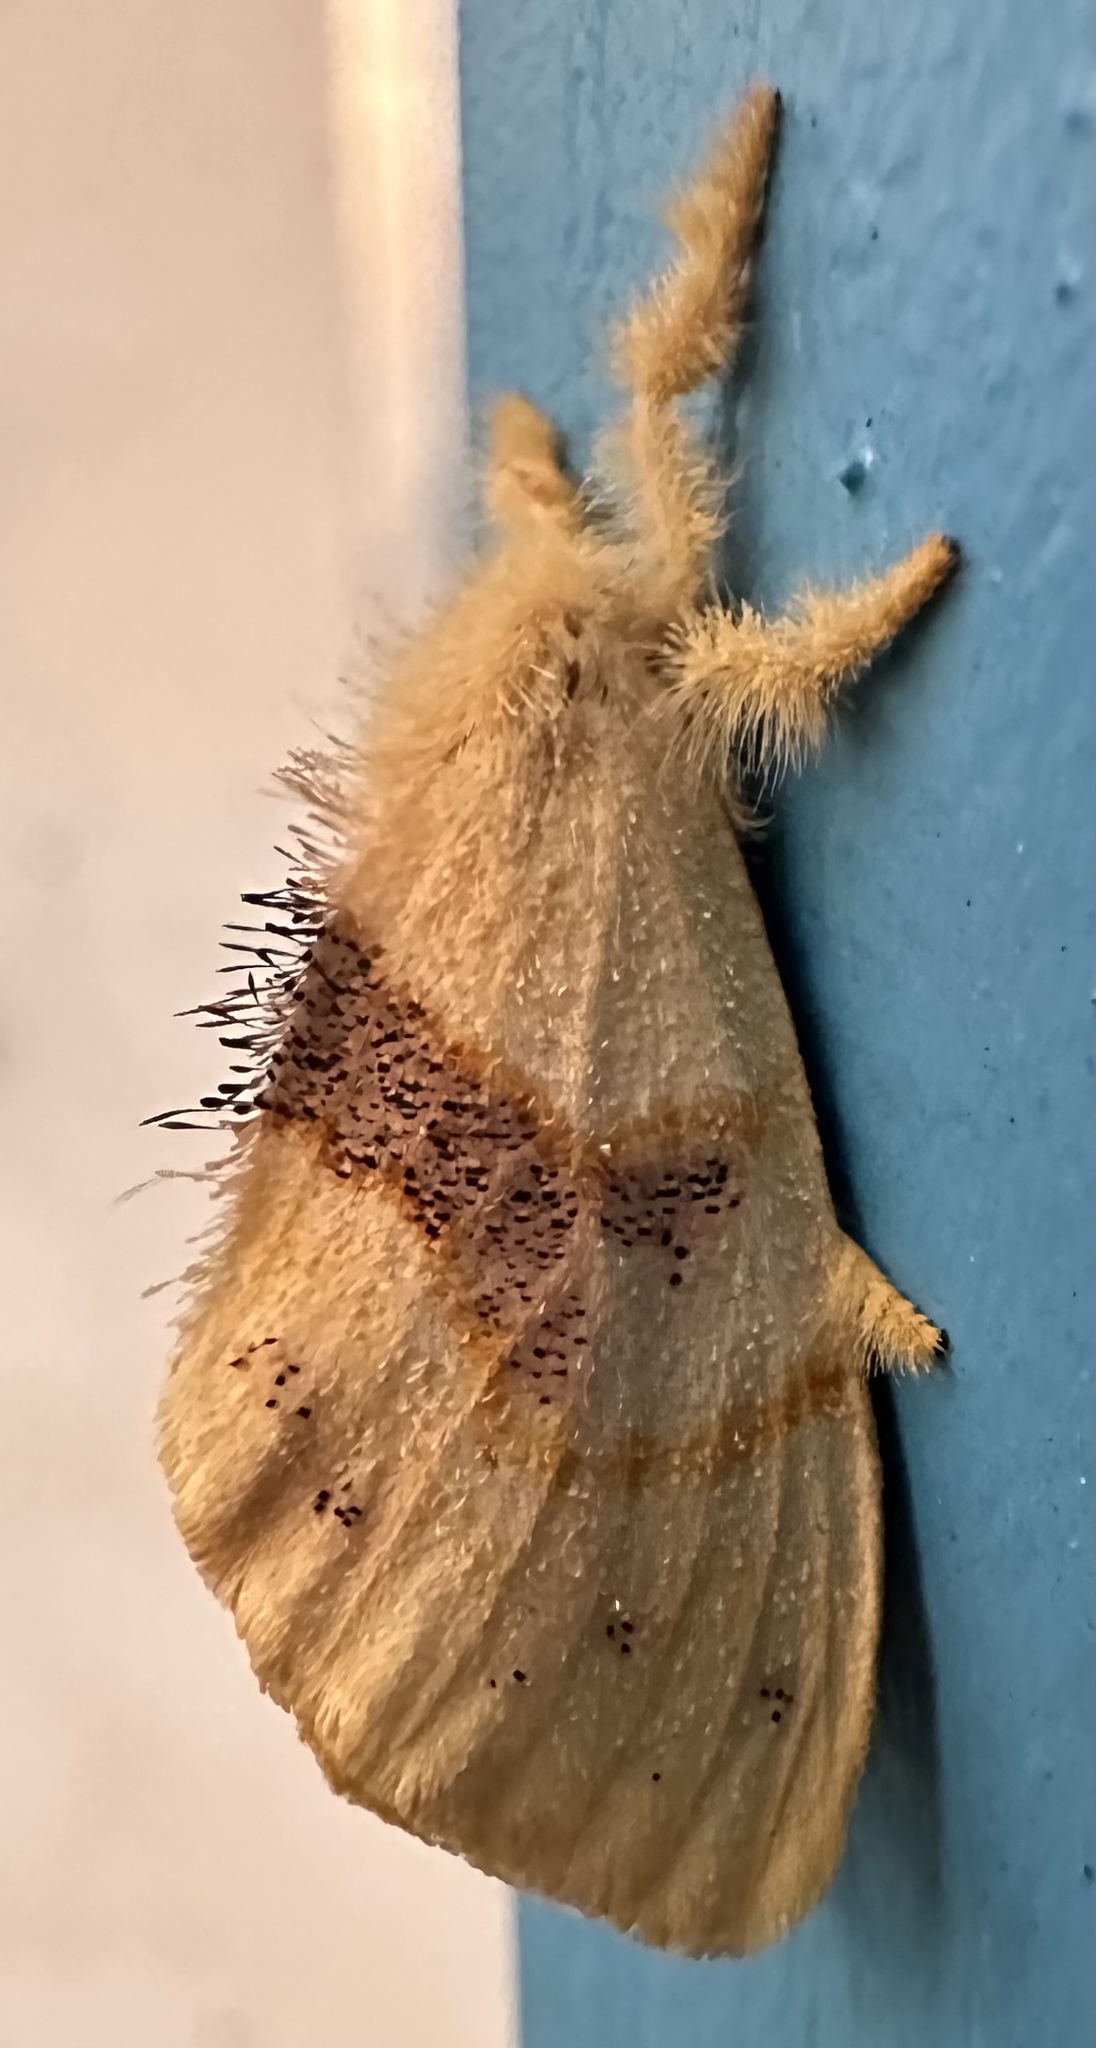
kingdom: Animalia
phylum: Arthropoda
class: Insecta
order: Lepidoptera
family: Erebidae
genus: Euproctis
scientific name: Euproctis Knappetra fasciata
